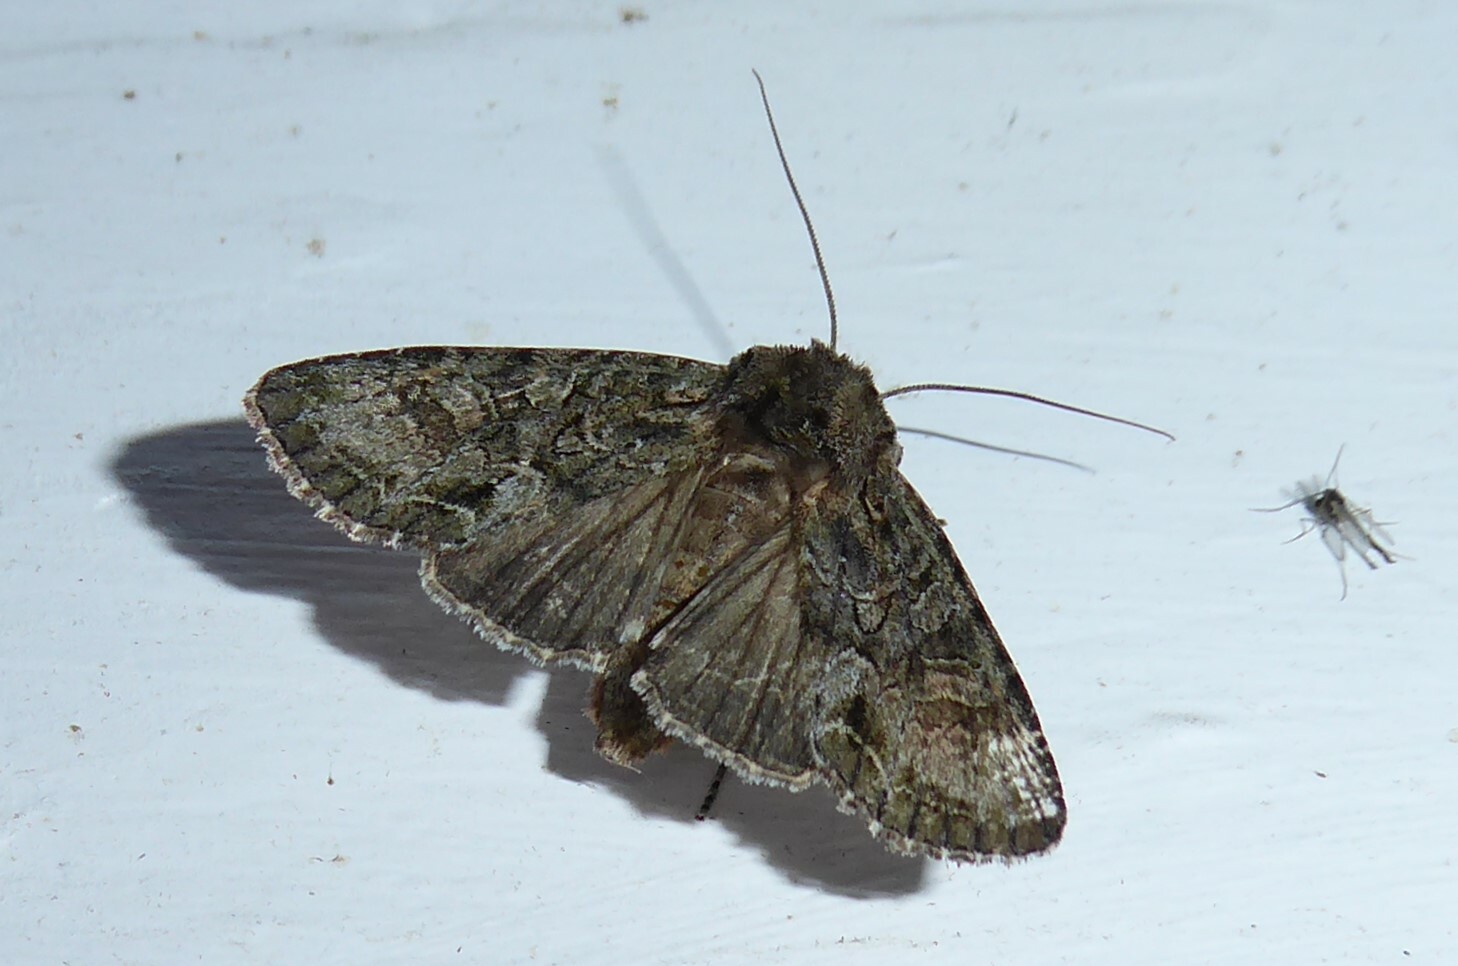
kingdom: Animalia
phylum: Arthropoda
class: Insecta
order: Lepidoptera
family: Noctuidae
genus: Ichneutica
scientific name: Ichneutica mutans
